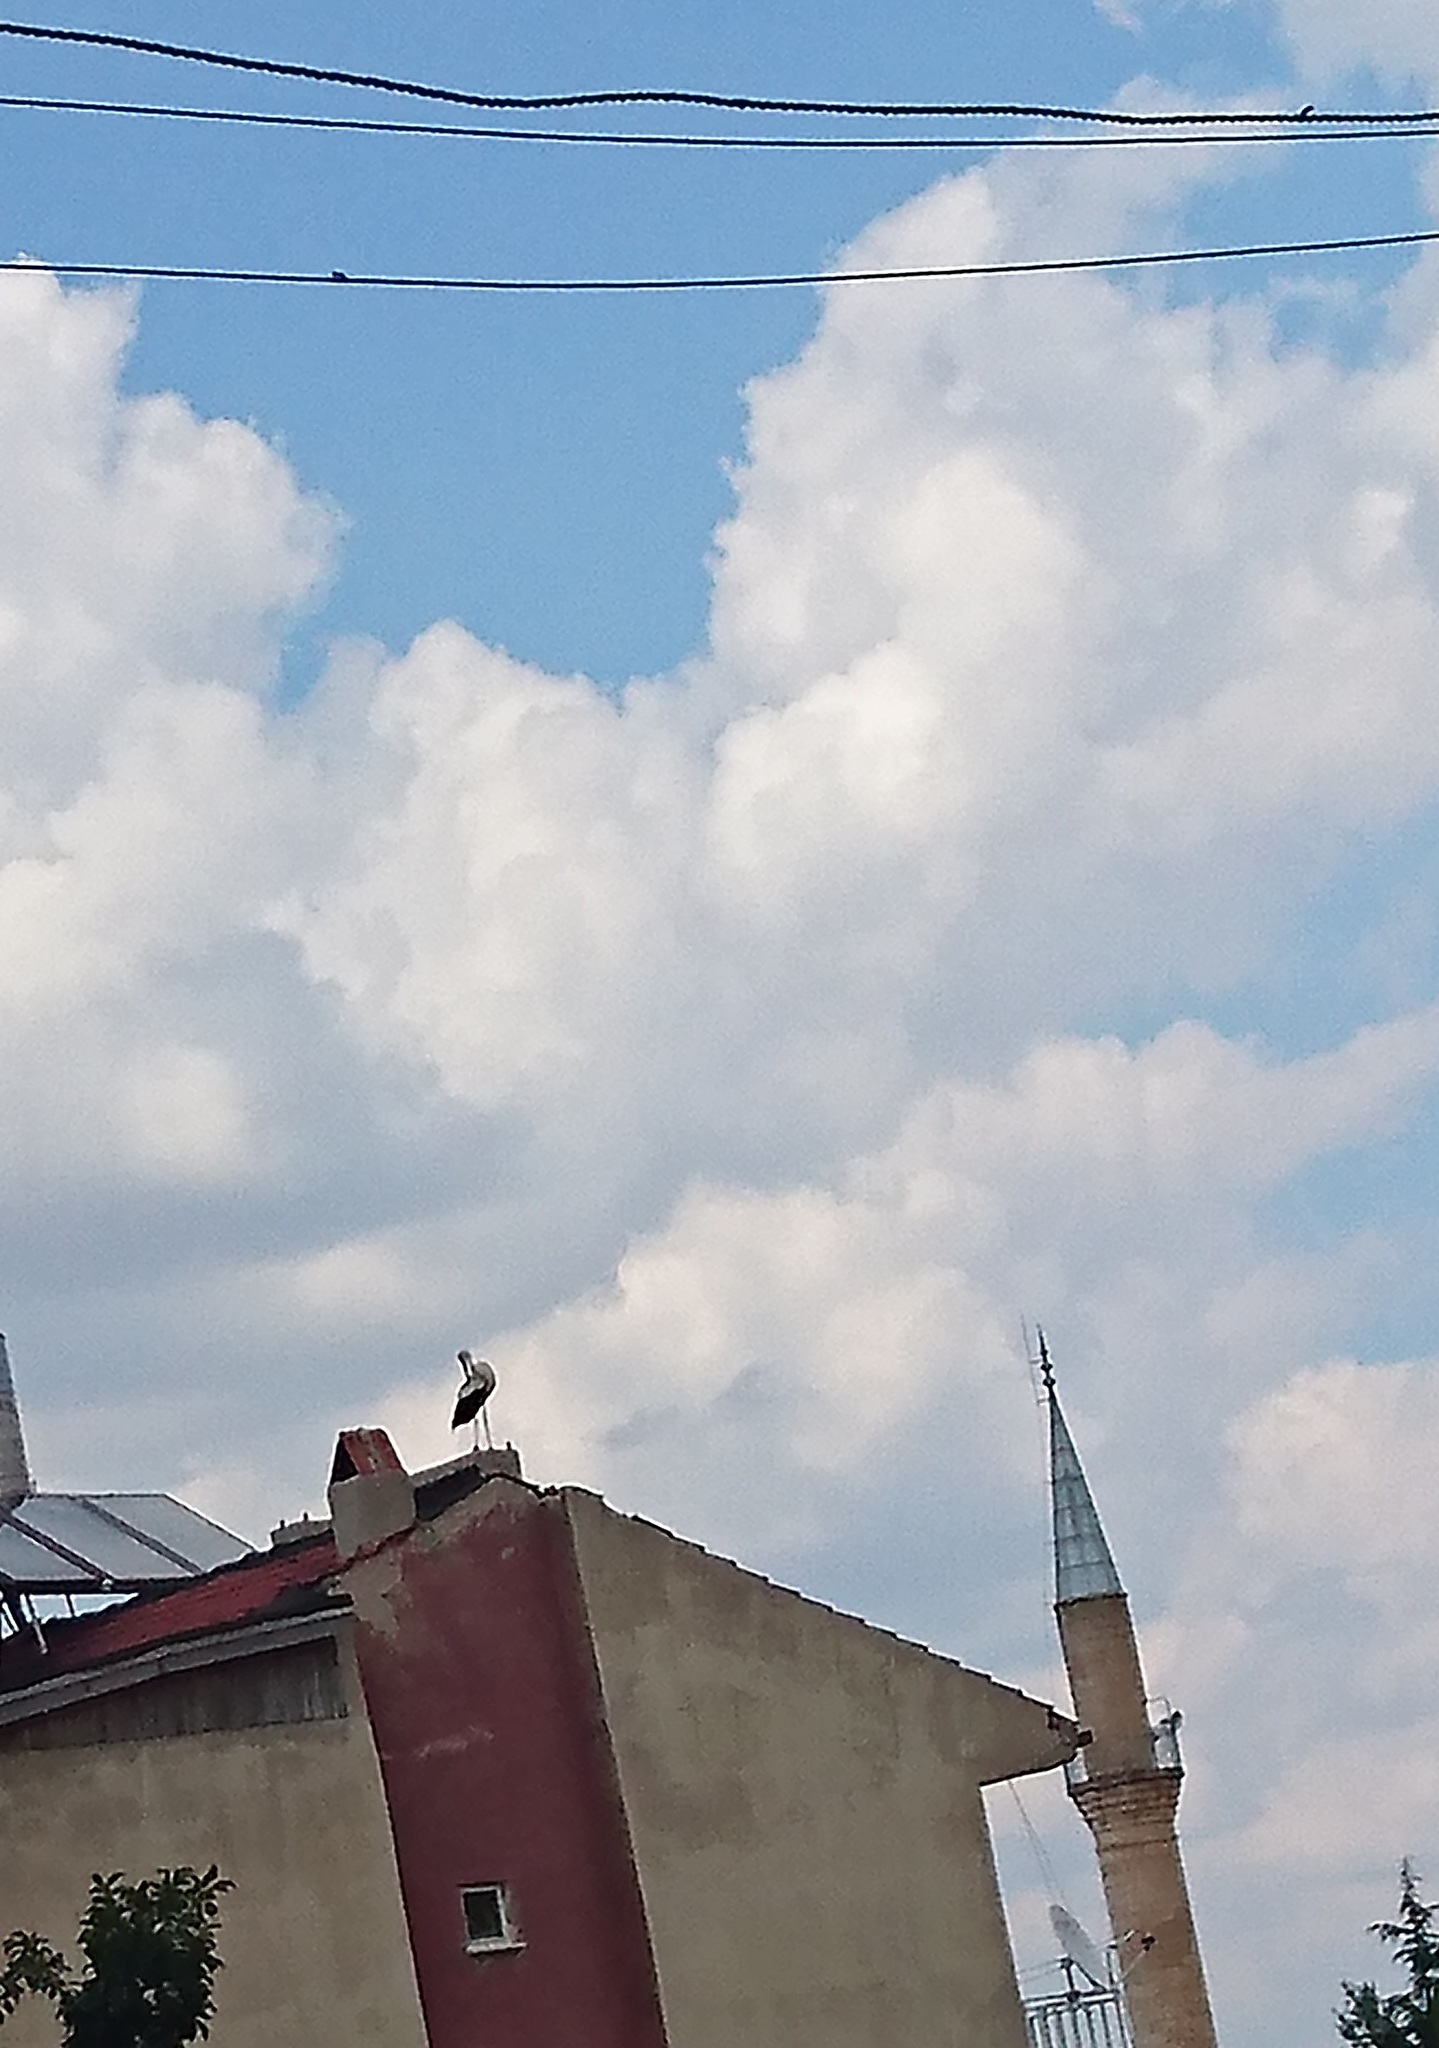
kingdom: Animalia
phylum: Chordata
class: Aves
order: Ciconiiformes
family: Ciconiidae
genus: Ciconia
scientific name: Ciconia ciconia
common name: White stork
